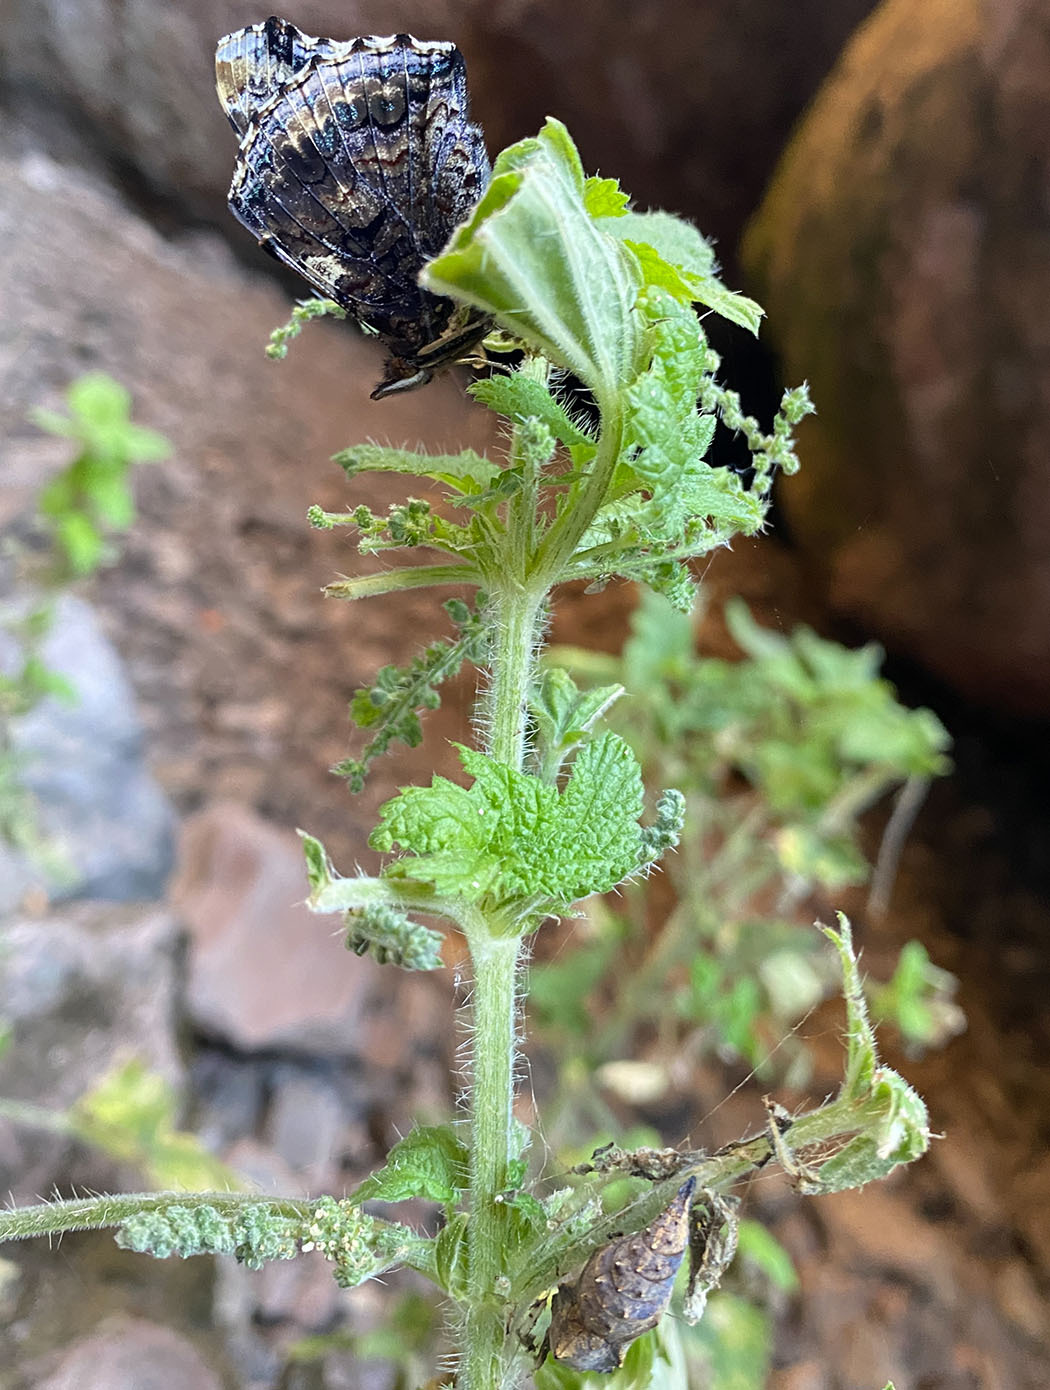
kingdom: Animalia
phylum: Arthropoda
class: Insecta
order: Lepidoptera
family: Nymphalidae
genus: Vanessa
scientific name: Vanessa atalanta
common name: Red admiral
